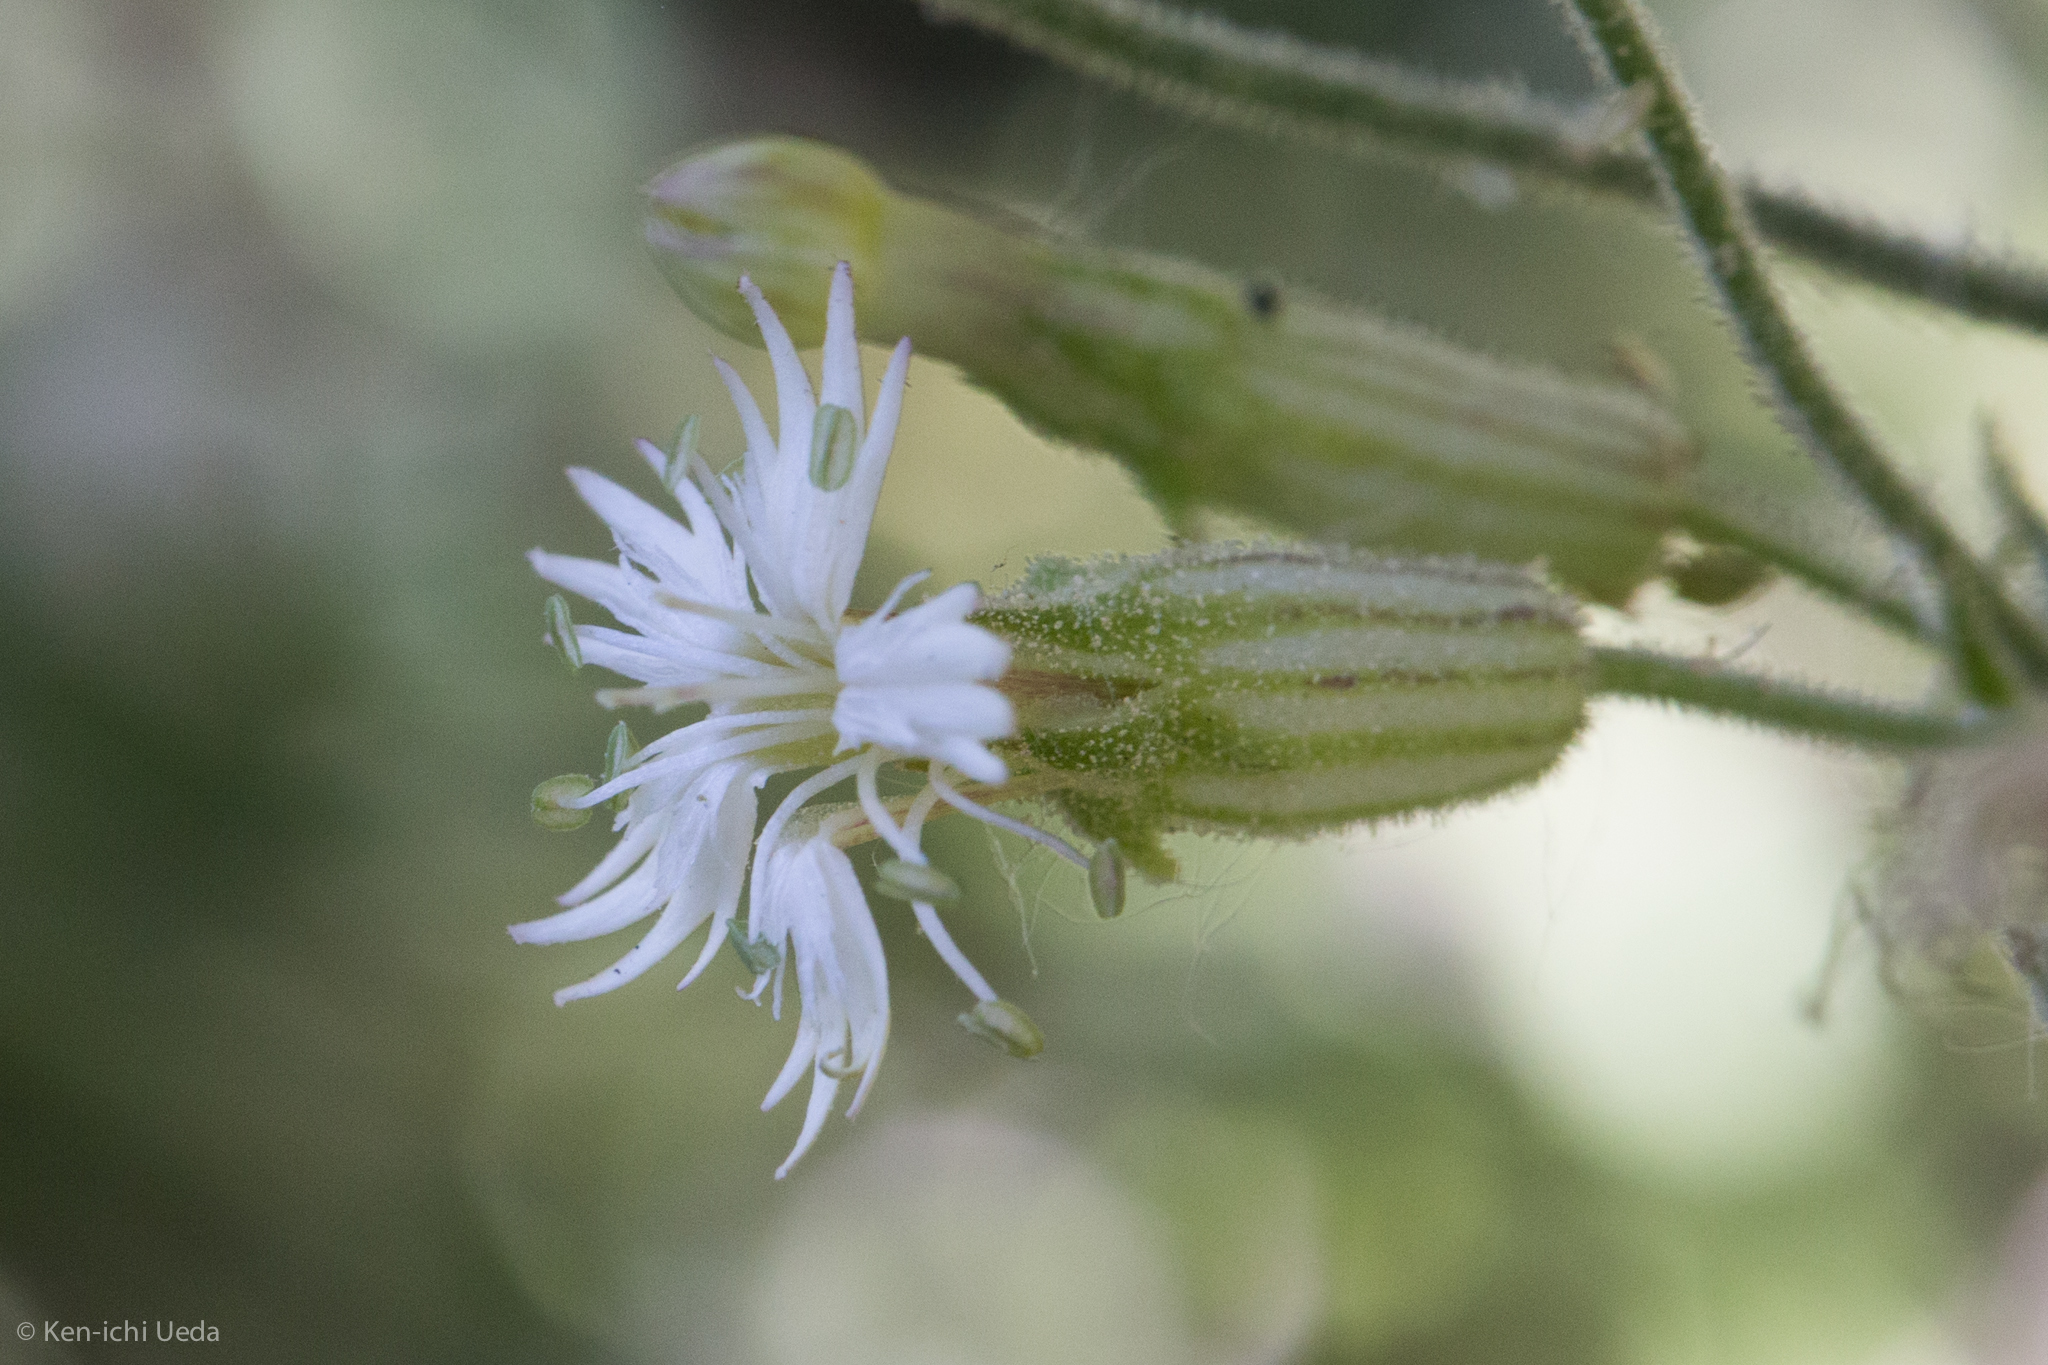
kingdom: Plantae
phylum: Tracheophyta
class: Magnoliopsida
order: Caryophyllales
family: Caryophyllaceae
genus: Silene
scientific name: Silene bernardina
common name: Palmer's catchfly
